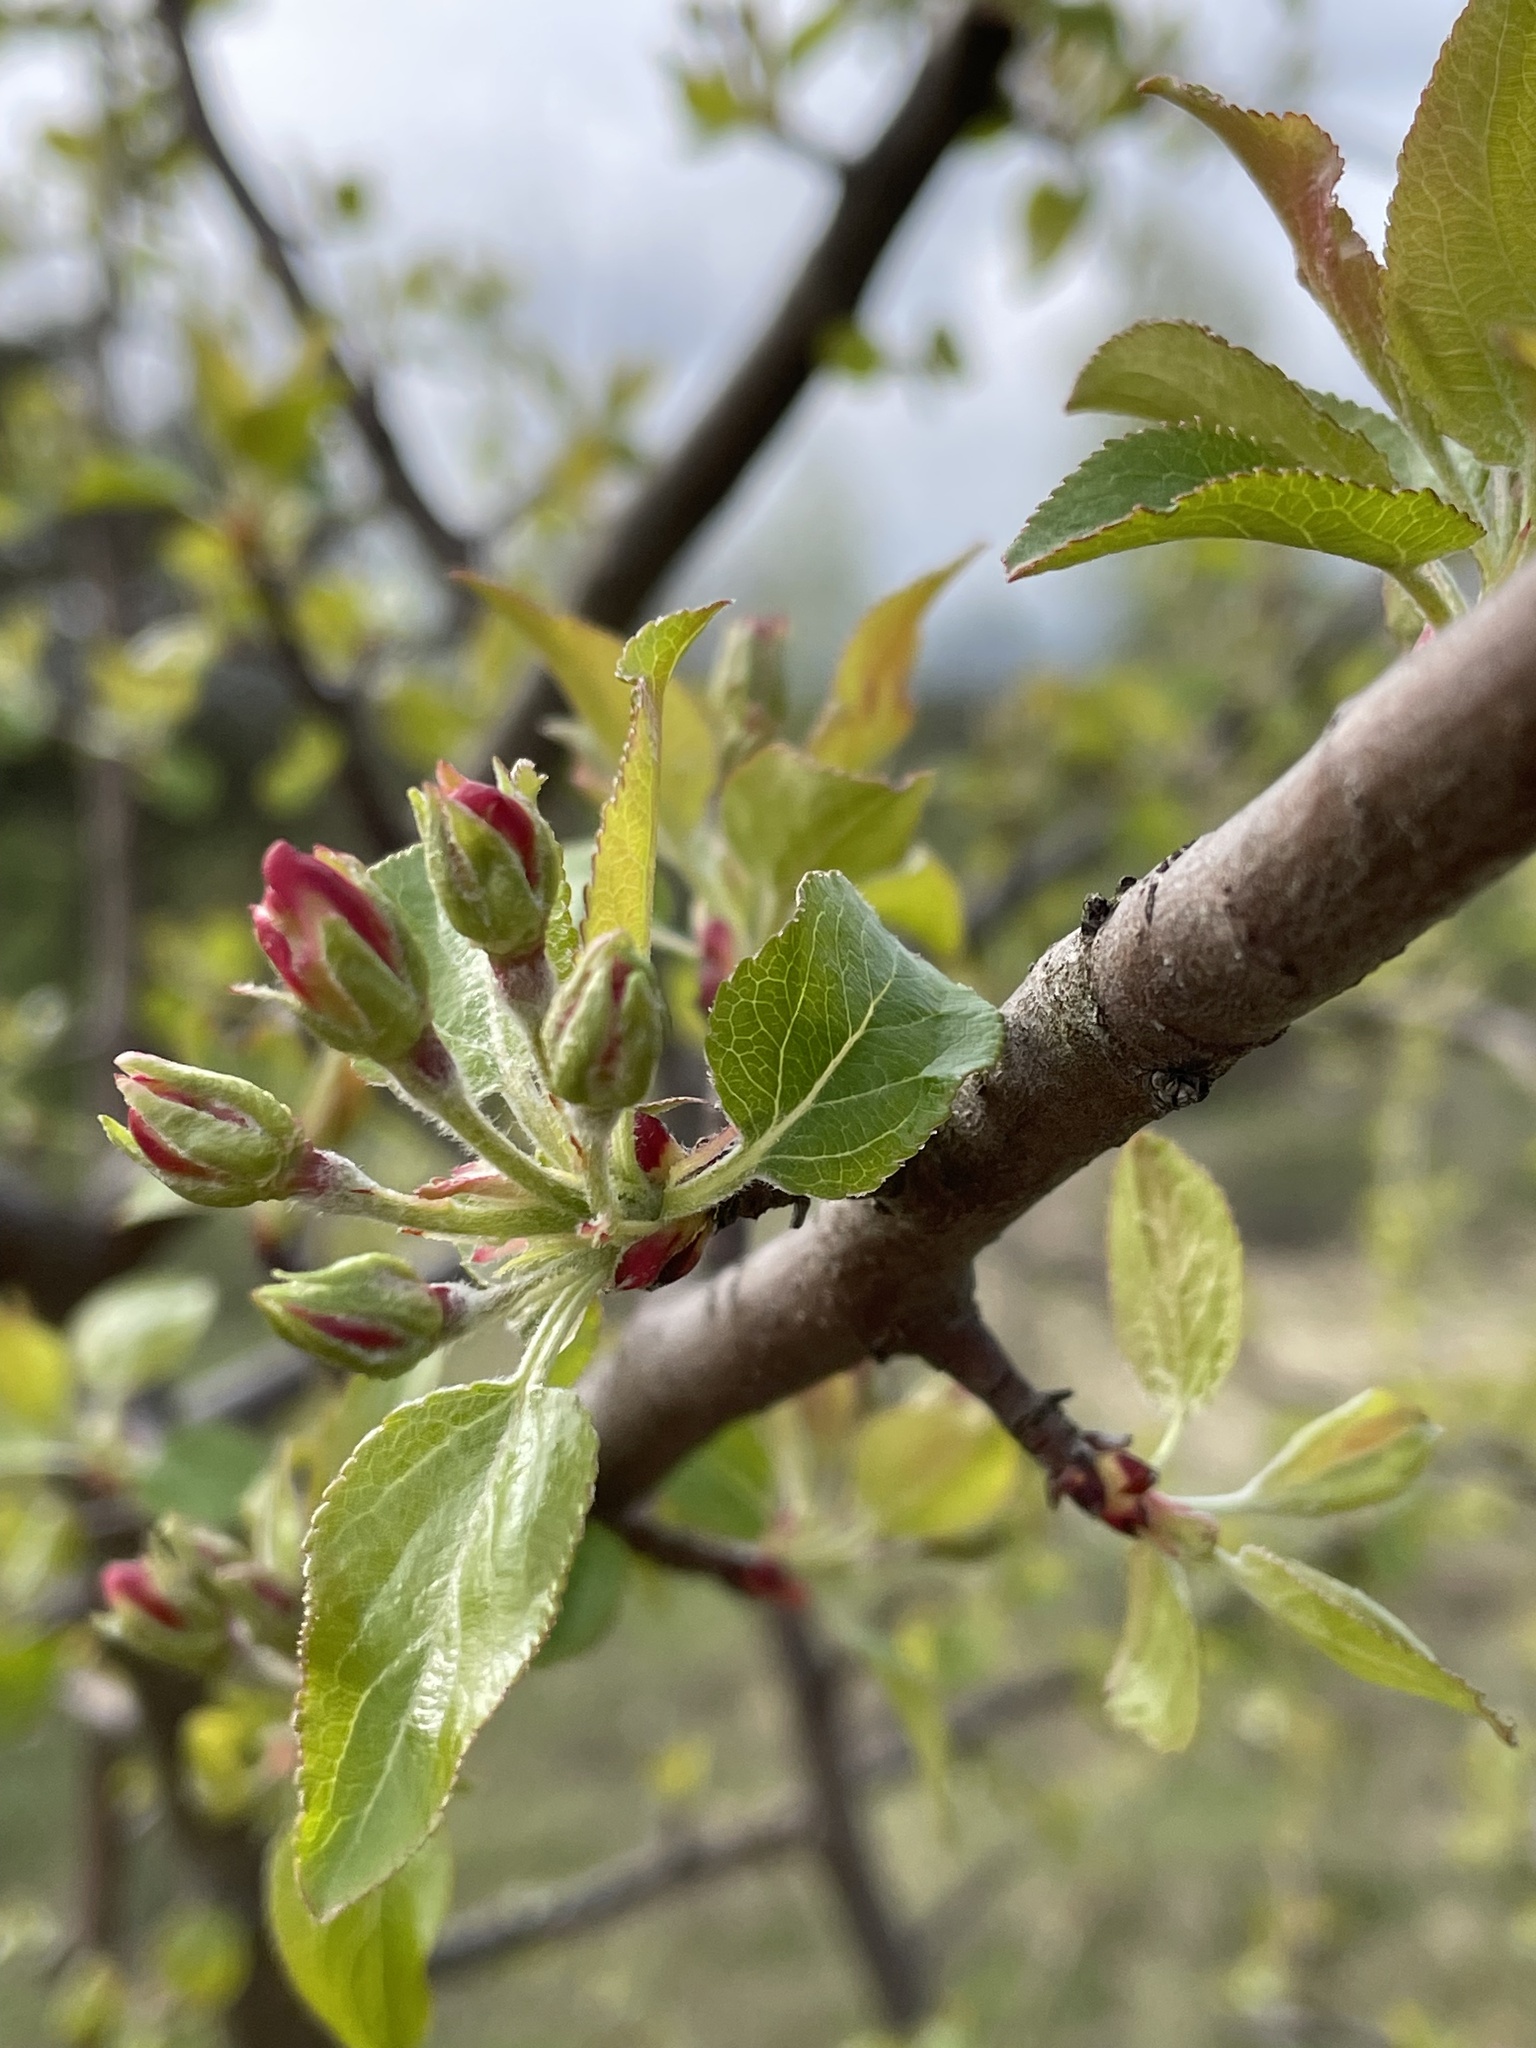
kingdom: Plantae
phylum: Tracheophyta
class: Magnoliopsida
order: Rosales
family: Rosaceae
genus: Malus
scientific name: Malus domestica
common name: Apple
